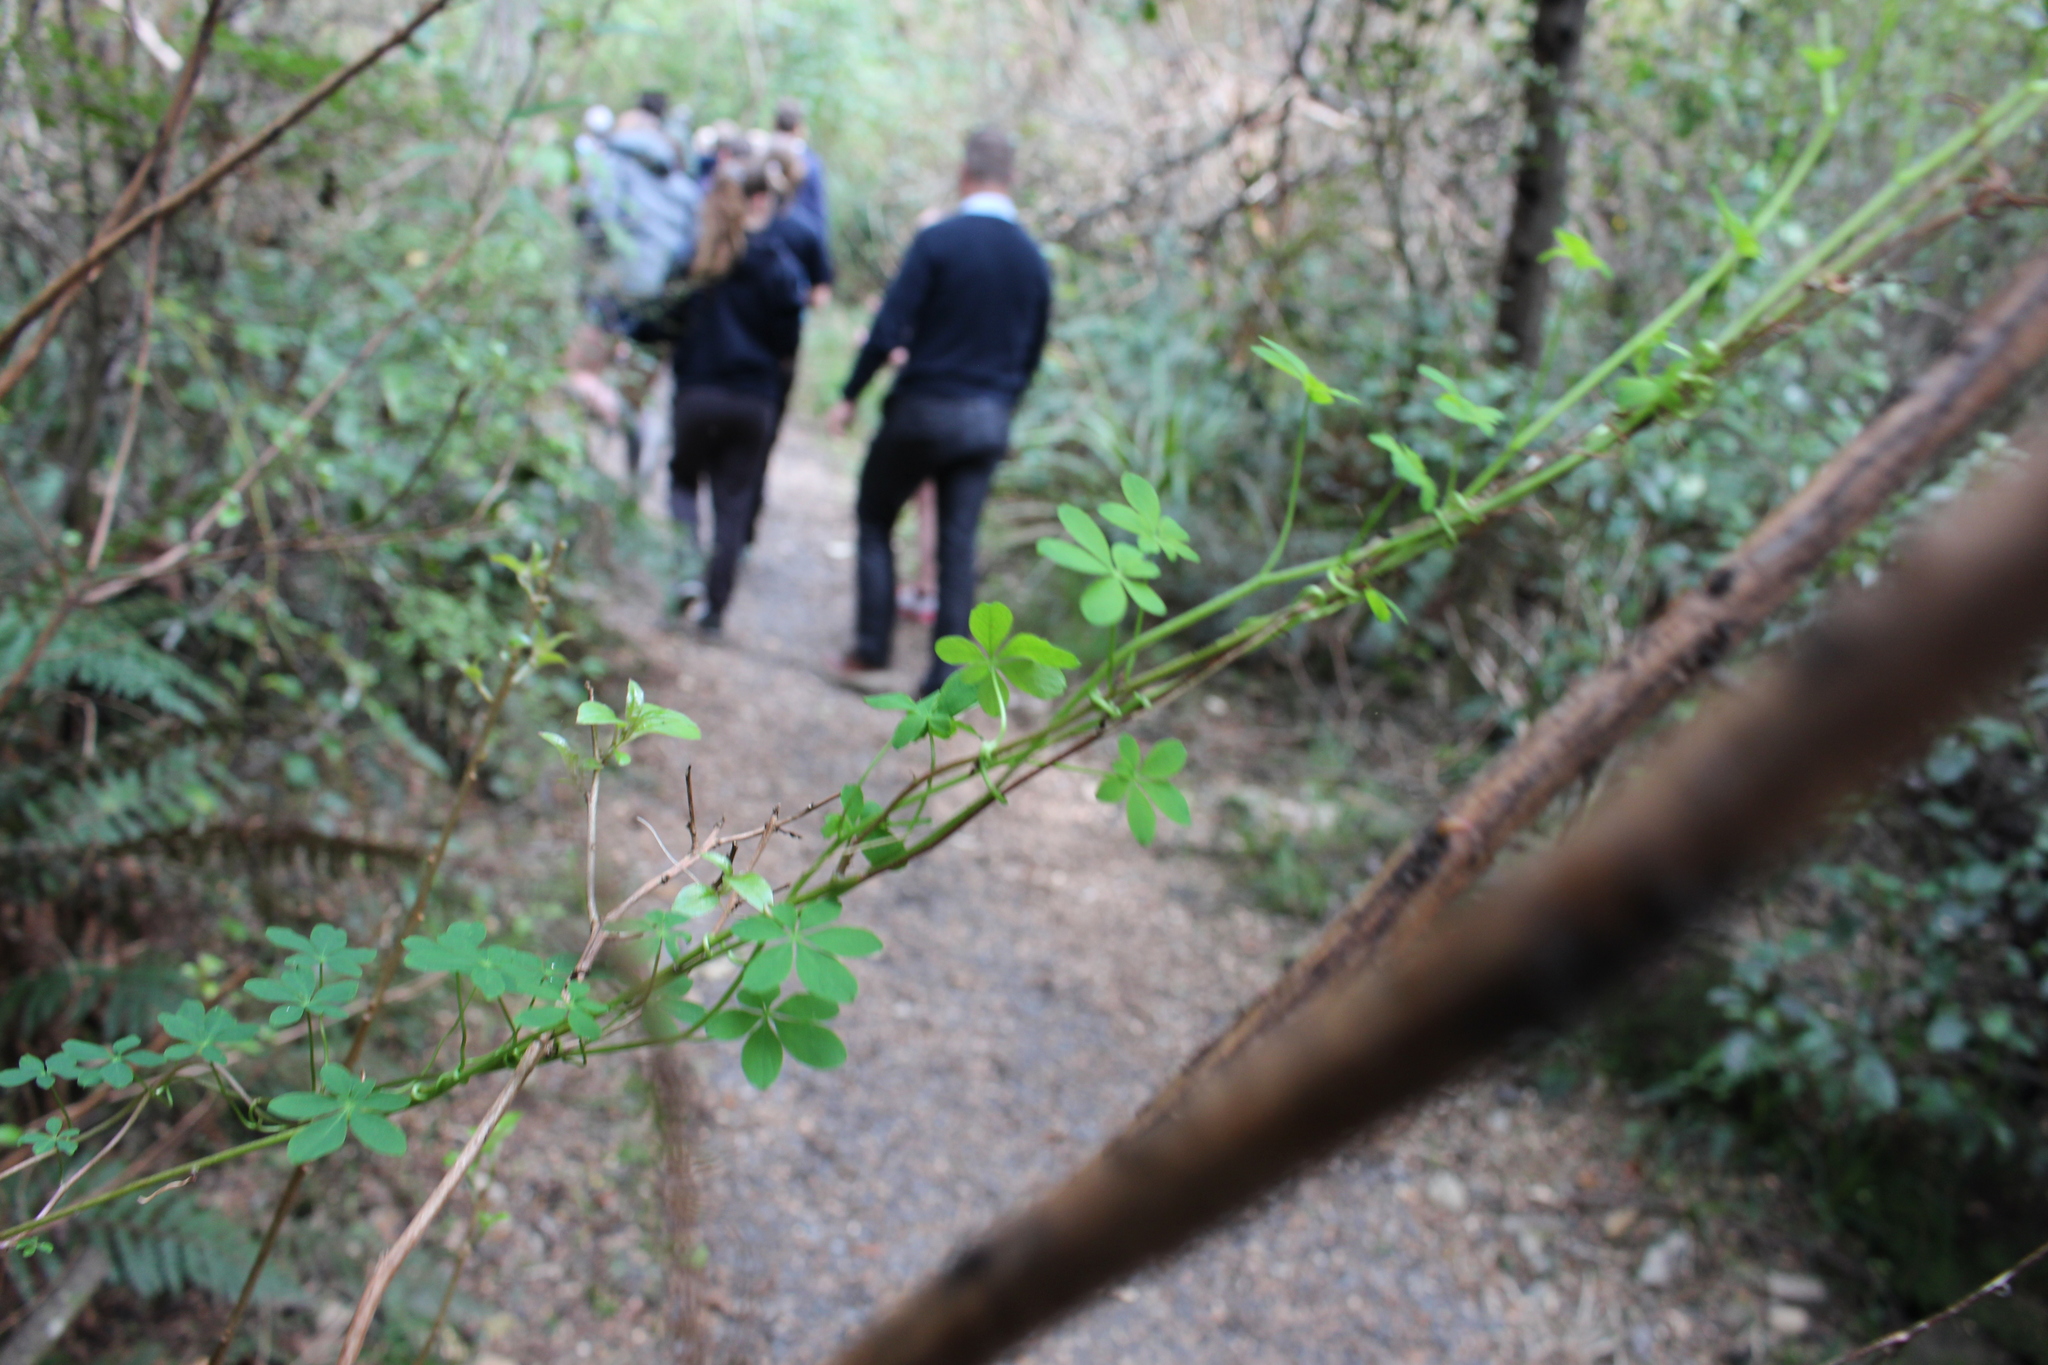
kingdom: Plantae
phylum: Tracheophyta
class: Magnoliopsida
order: Brassicales
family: Tropaeolaceae
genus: Tropaeolum
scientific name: Tropaeolum speciosum
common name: Flame nasturtium
